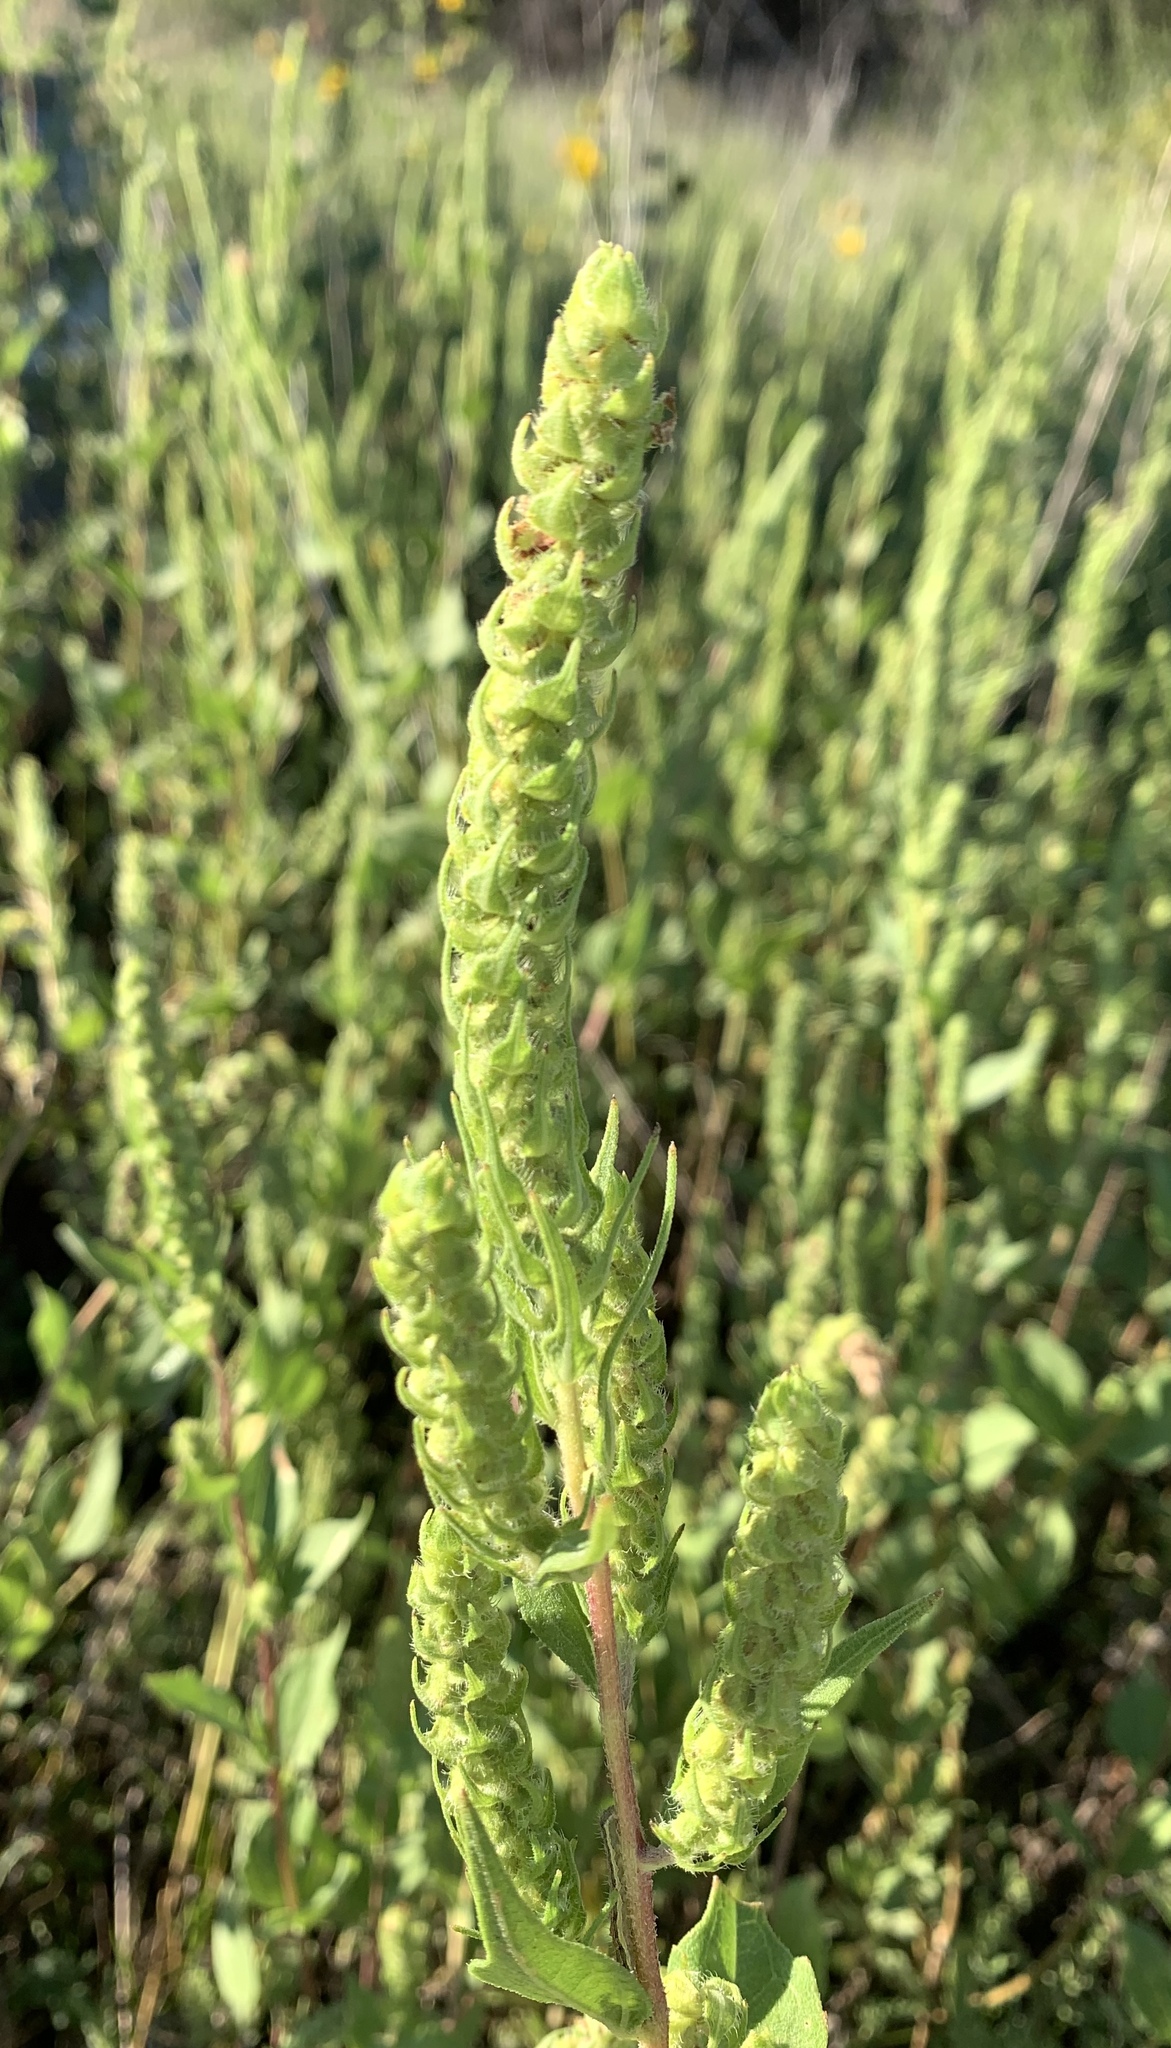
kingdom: Plantae
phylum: Tracheophyta
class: Magnoliopsida
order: Asterales
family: Asteraceae
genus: Iva
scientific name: Iva annua
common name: Marsh-elder
